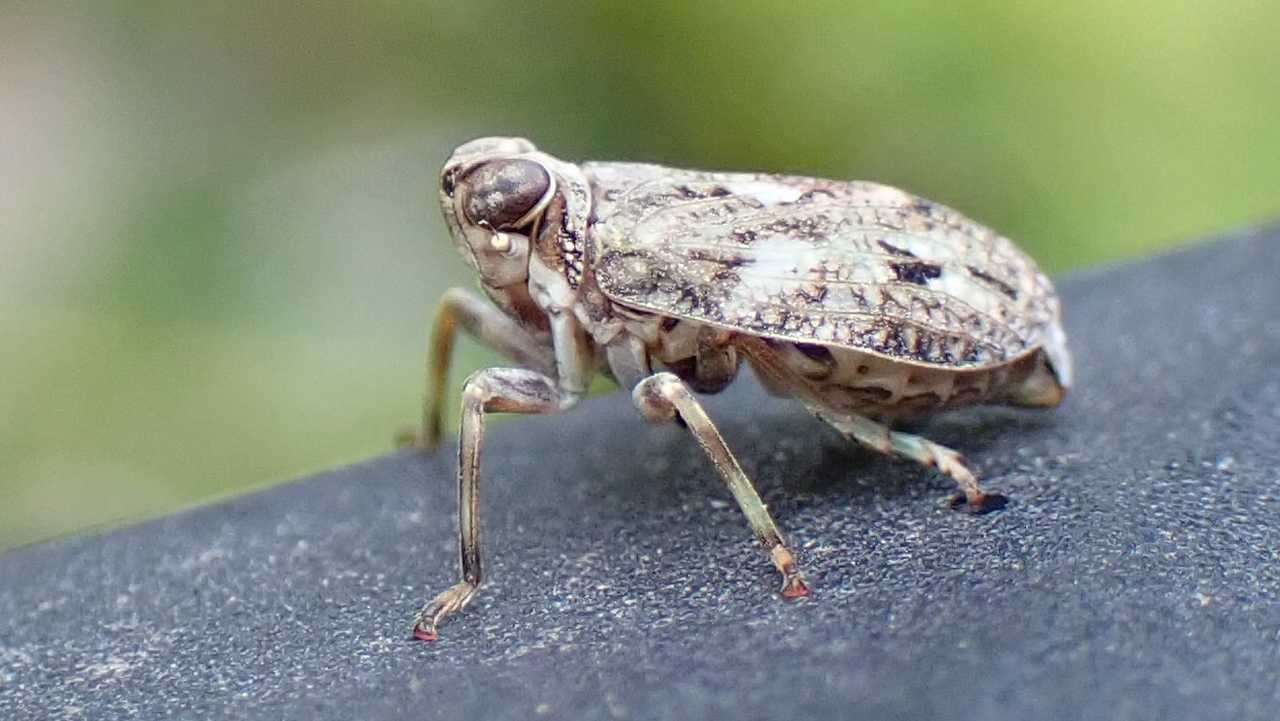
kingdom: Animalia
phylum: Arthropoda
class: Insecta
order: Hemiptera
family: Issidae
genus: Issus
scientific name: Issus coleoptratus
